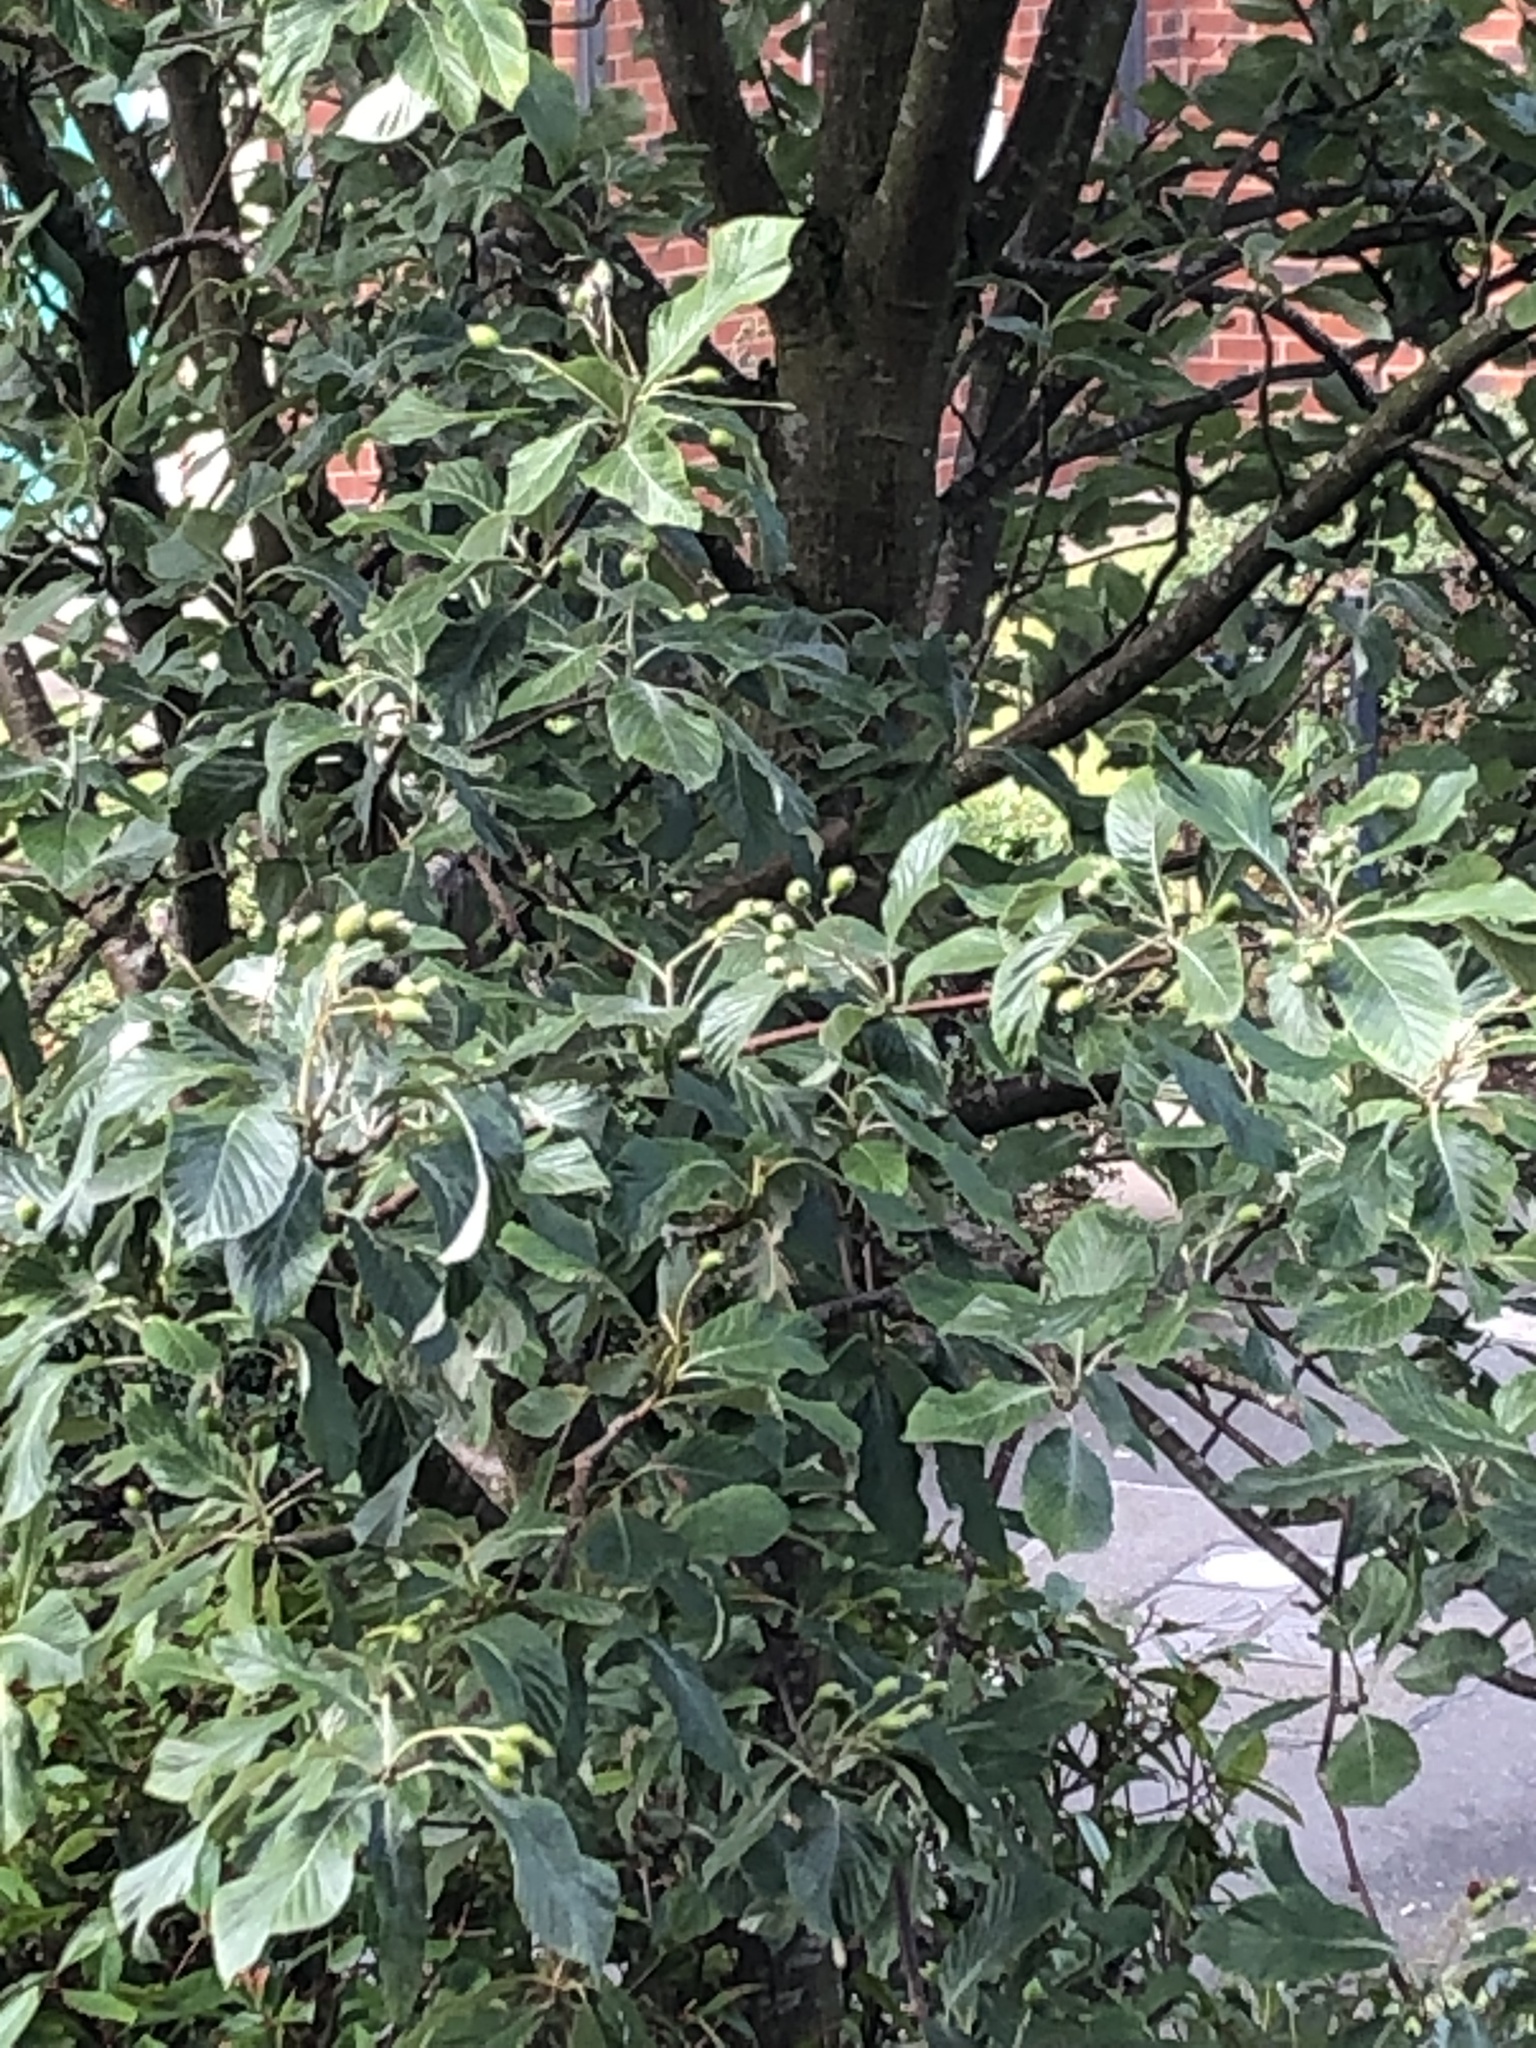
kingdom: Plantae
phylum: Tracheophyta
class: Magnoliopsida
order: Rosales
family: Rosaceae
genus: Aria
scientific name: Aria edulis
